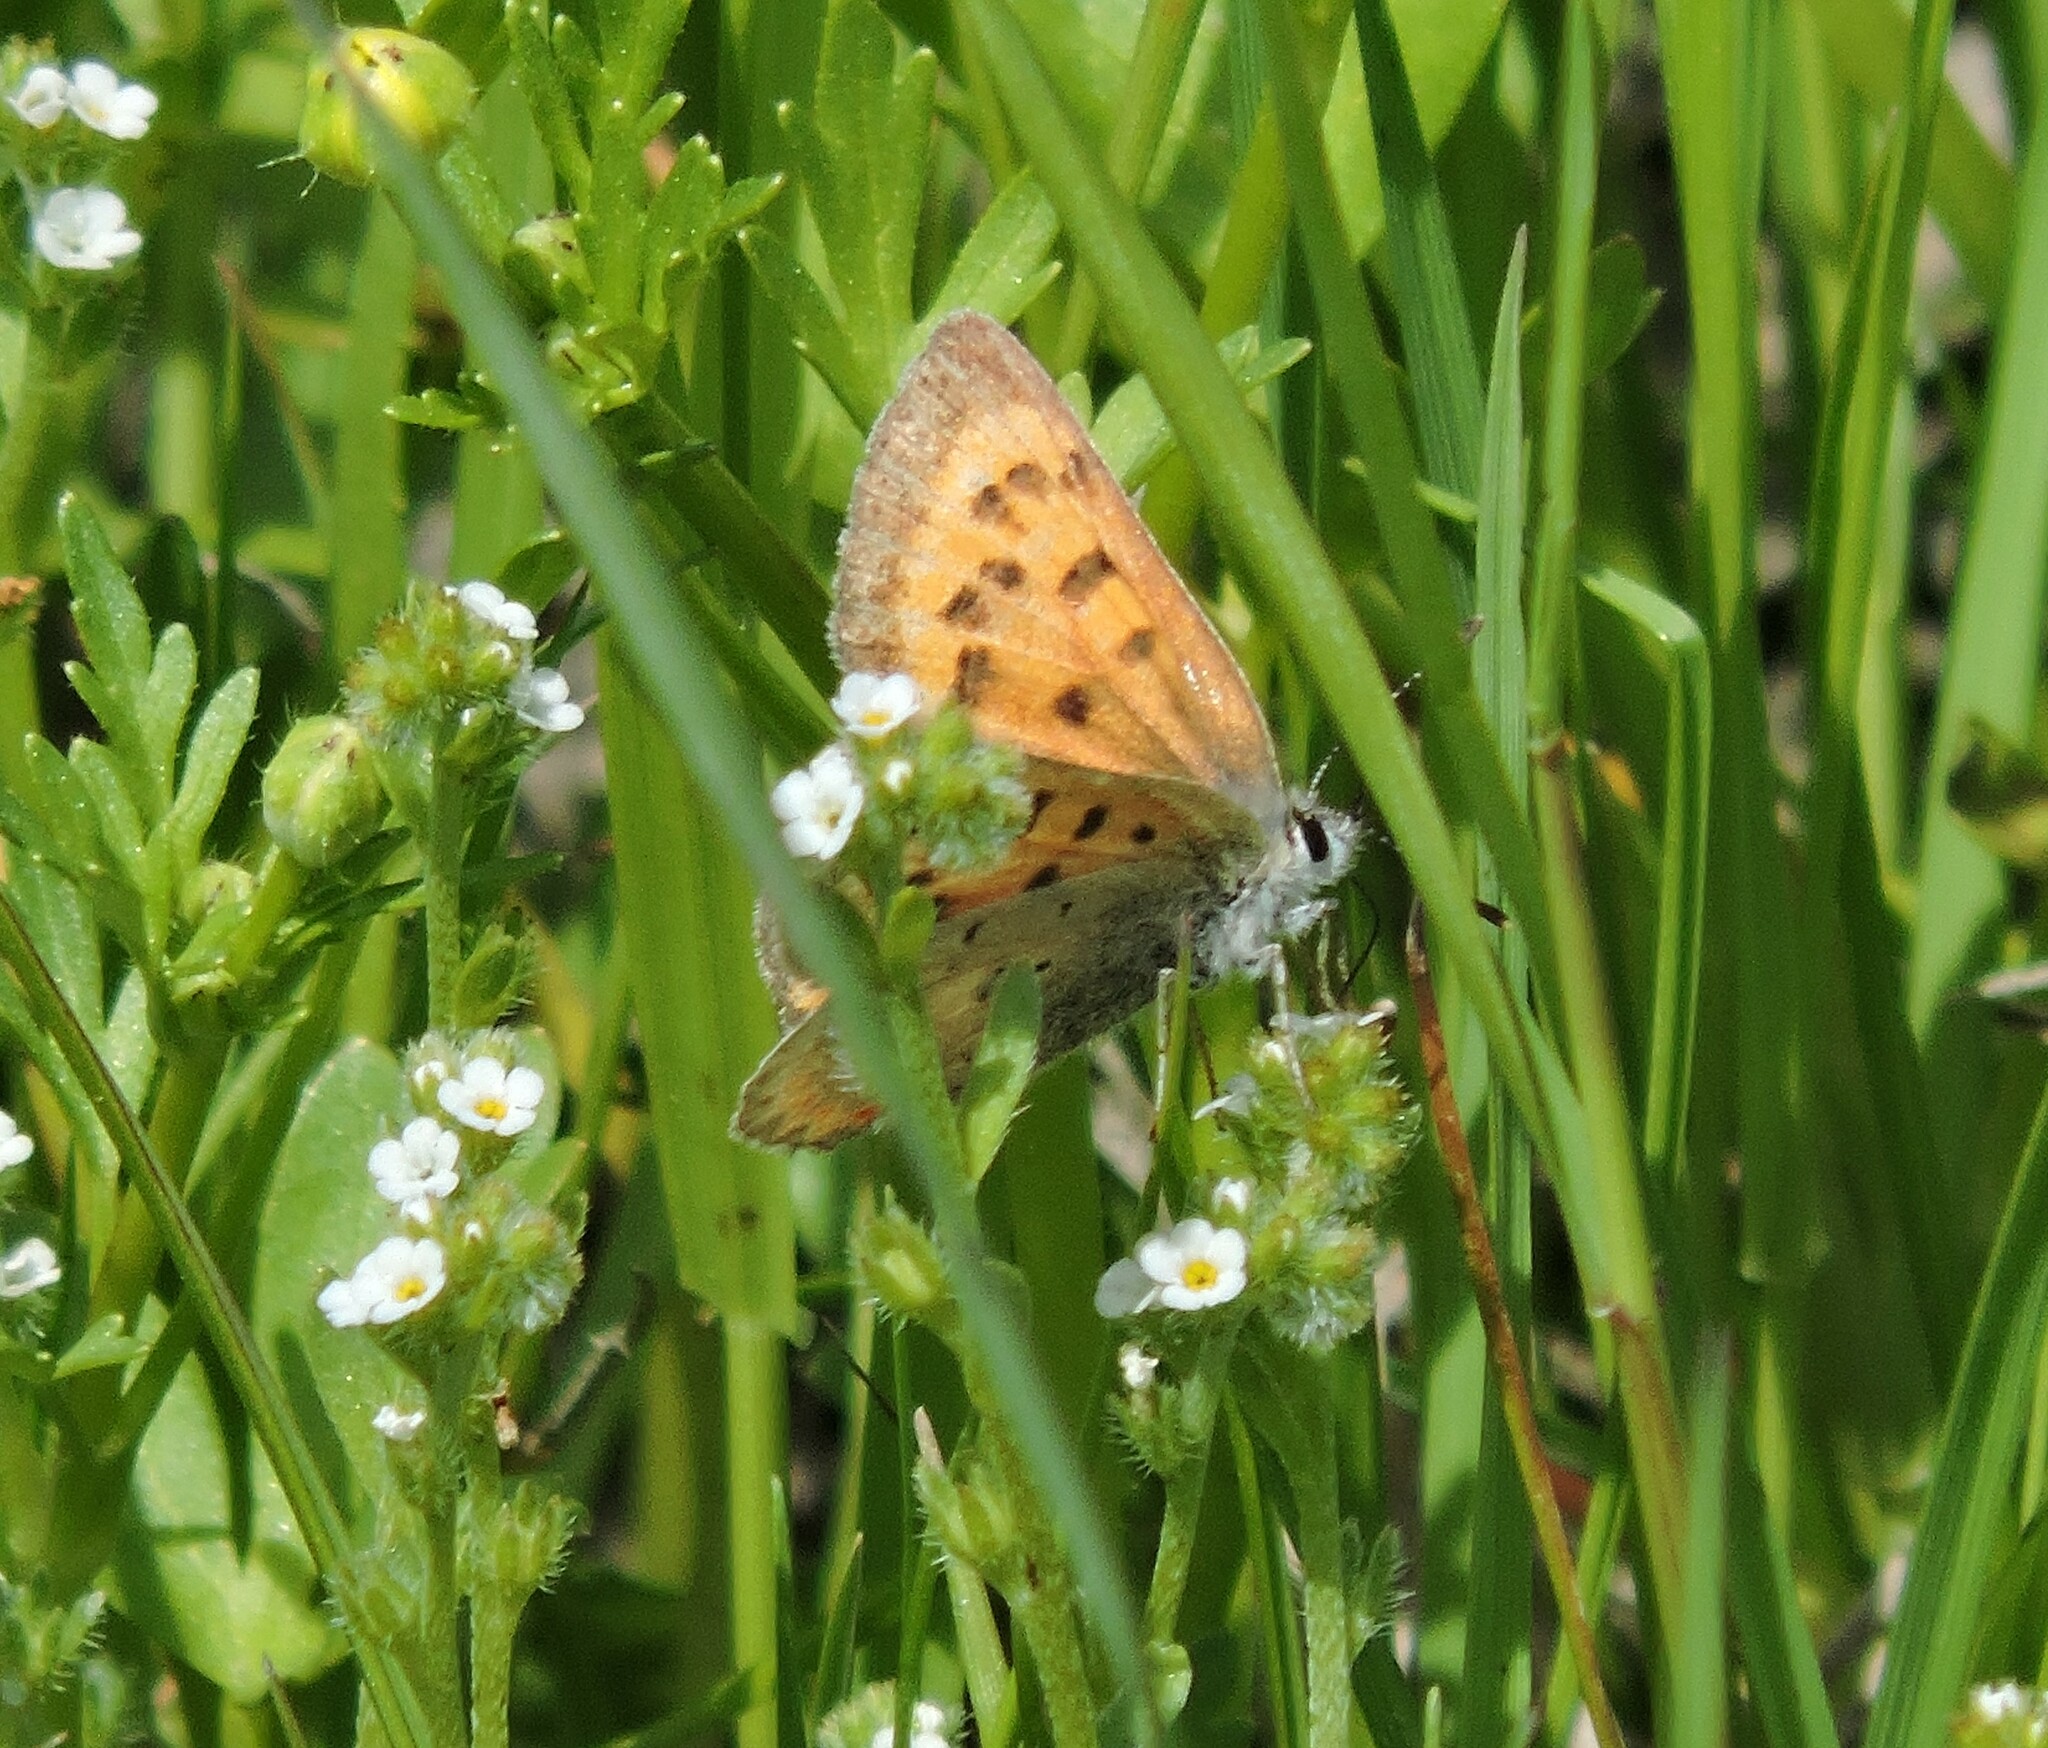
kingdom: Animalia
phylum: Arthropoda
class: Insecta
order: Lepidoptera
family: Lycaenidae
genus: Tharsalea
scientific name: Tharsalea helloides
